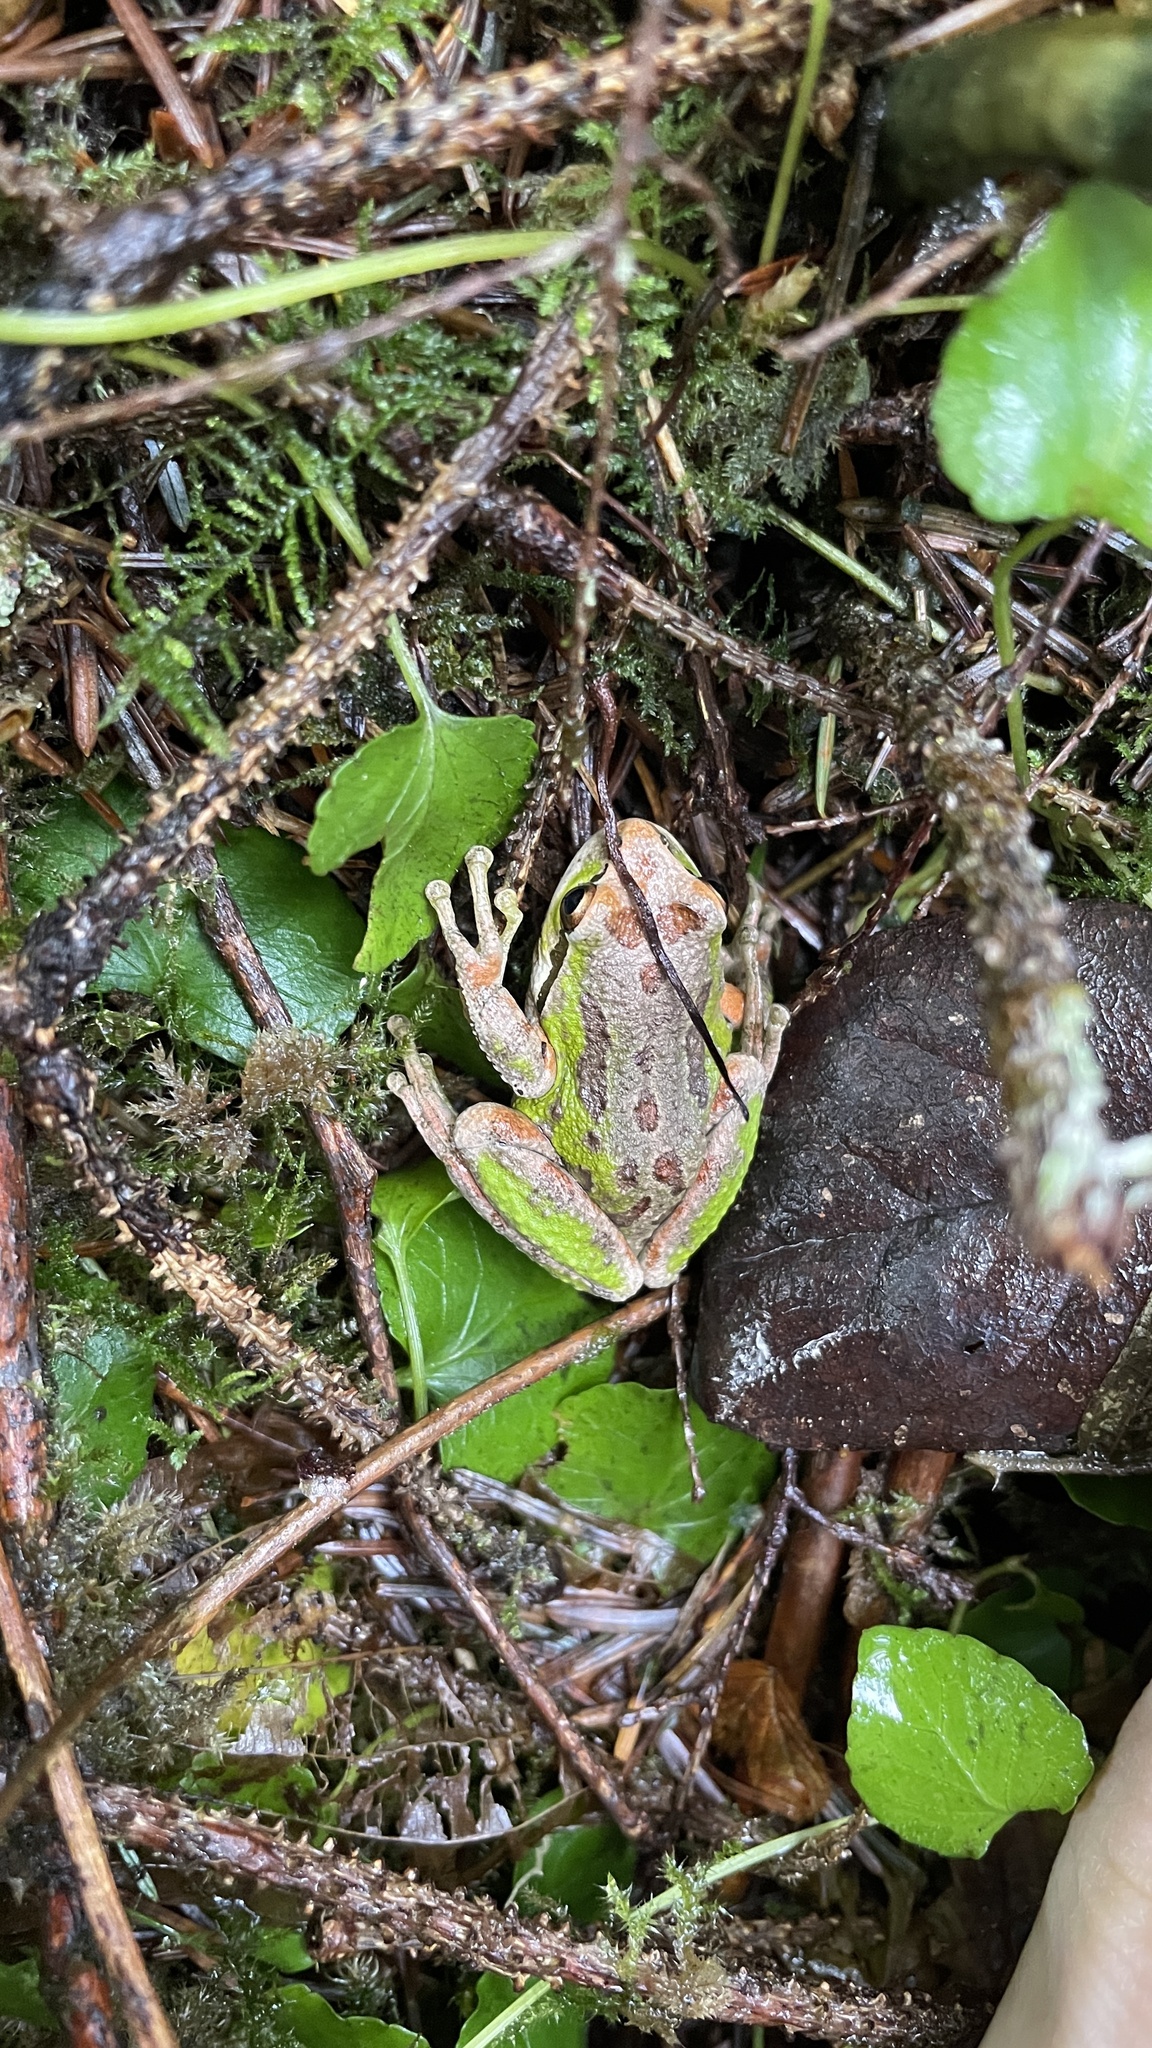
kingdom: Animalia
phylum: Chordata
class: Amphibia
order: Anura
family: Hylidae
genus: Pseudacris
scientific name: Pseudacris regilla
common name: Pacific chorus frog
